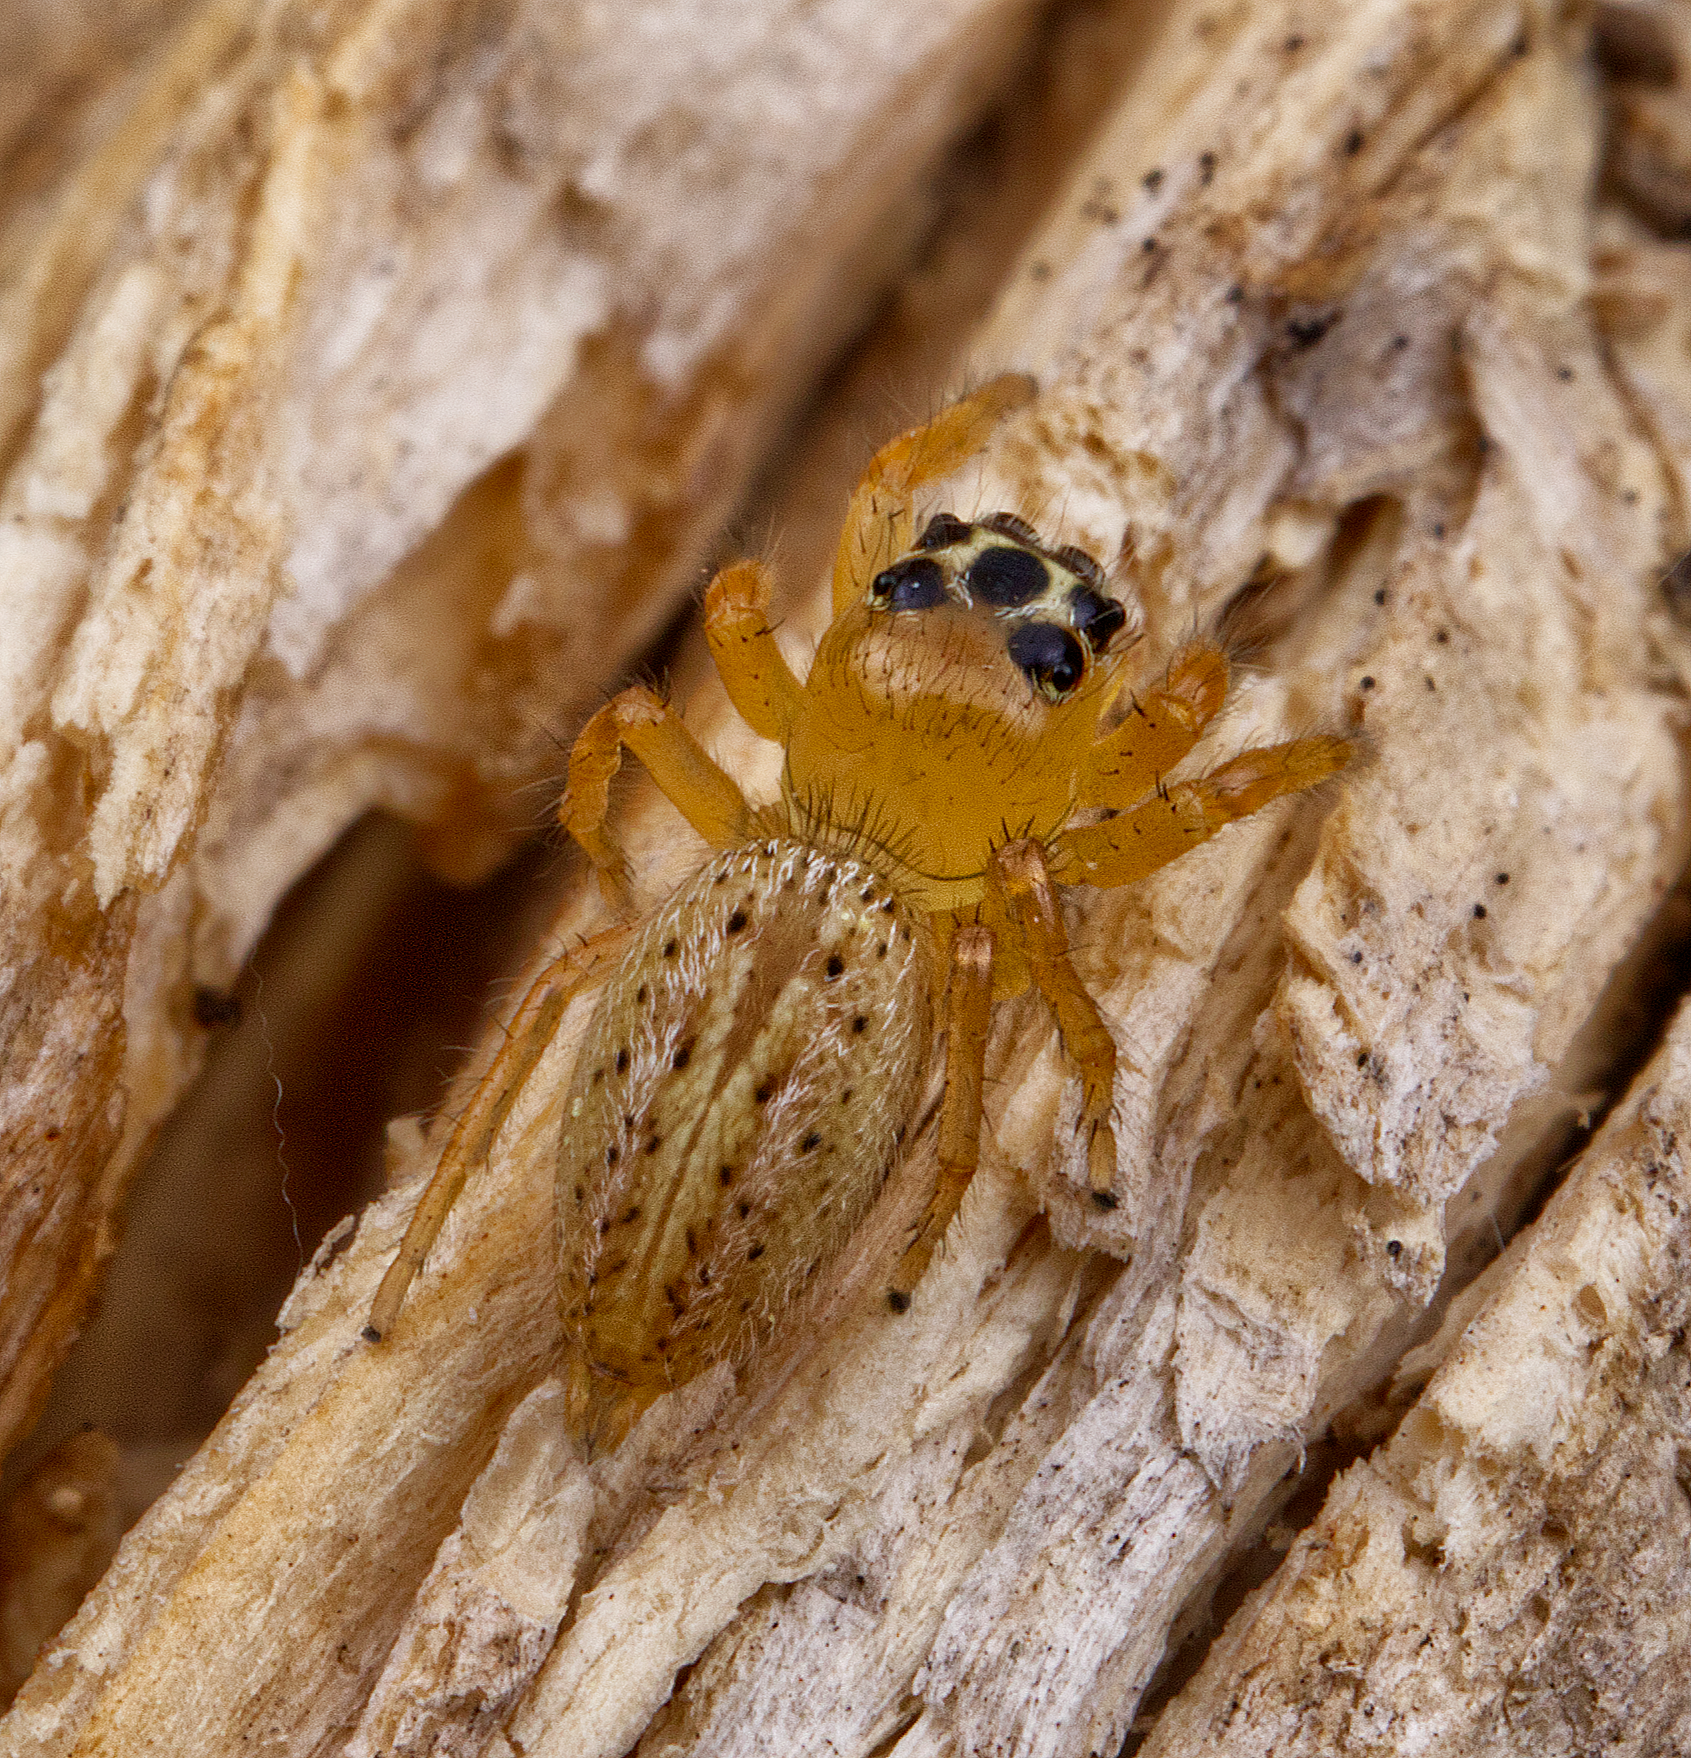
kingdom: Animalia
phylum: Arthropoda
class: Arachnida
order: Araneae
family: Salticidae
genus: Colonus
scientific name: Colonus puerperus
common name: Jumping spiders
